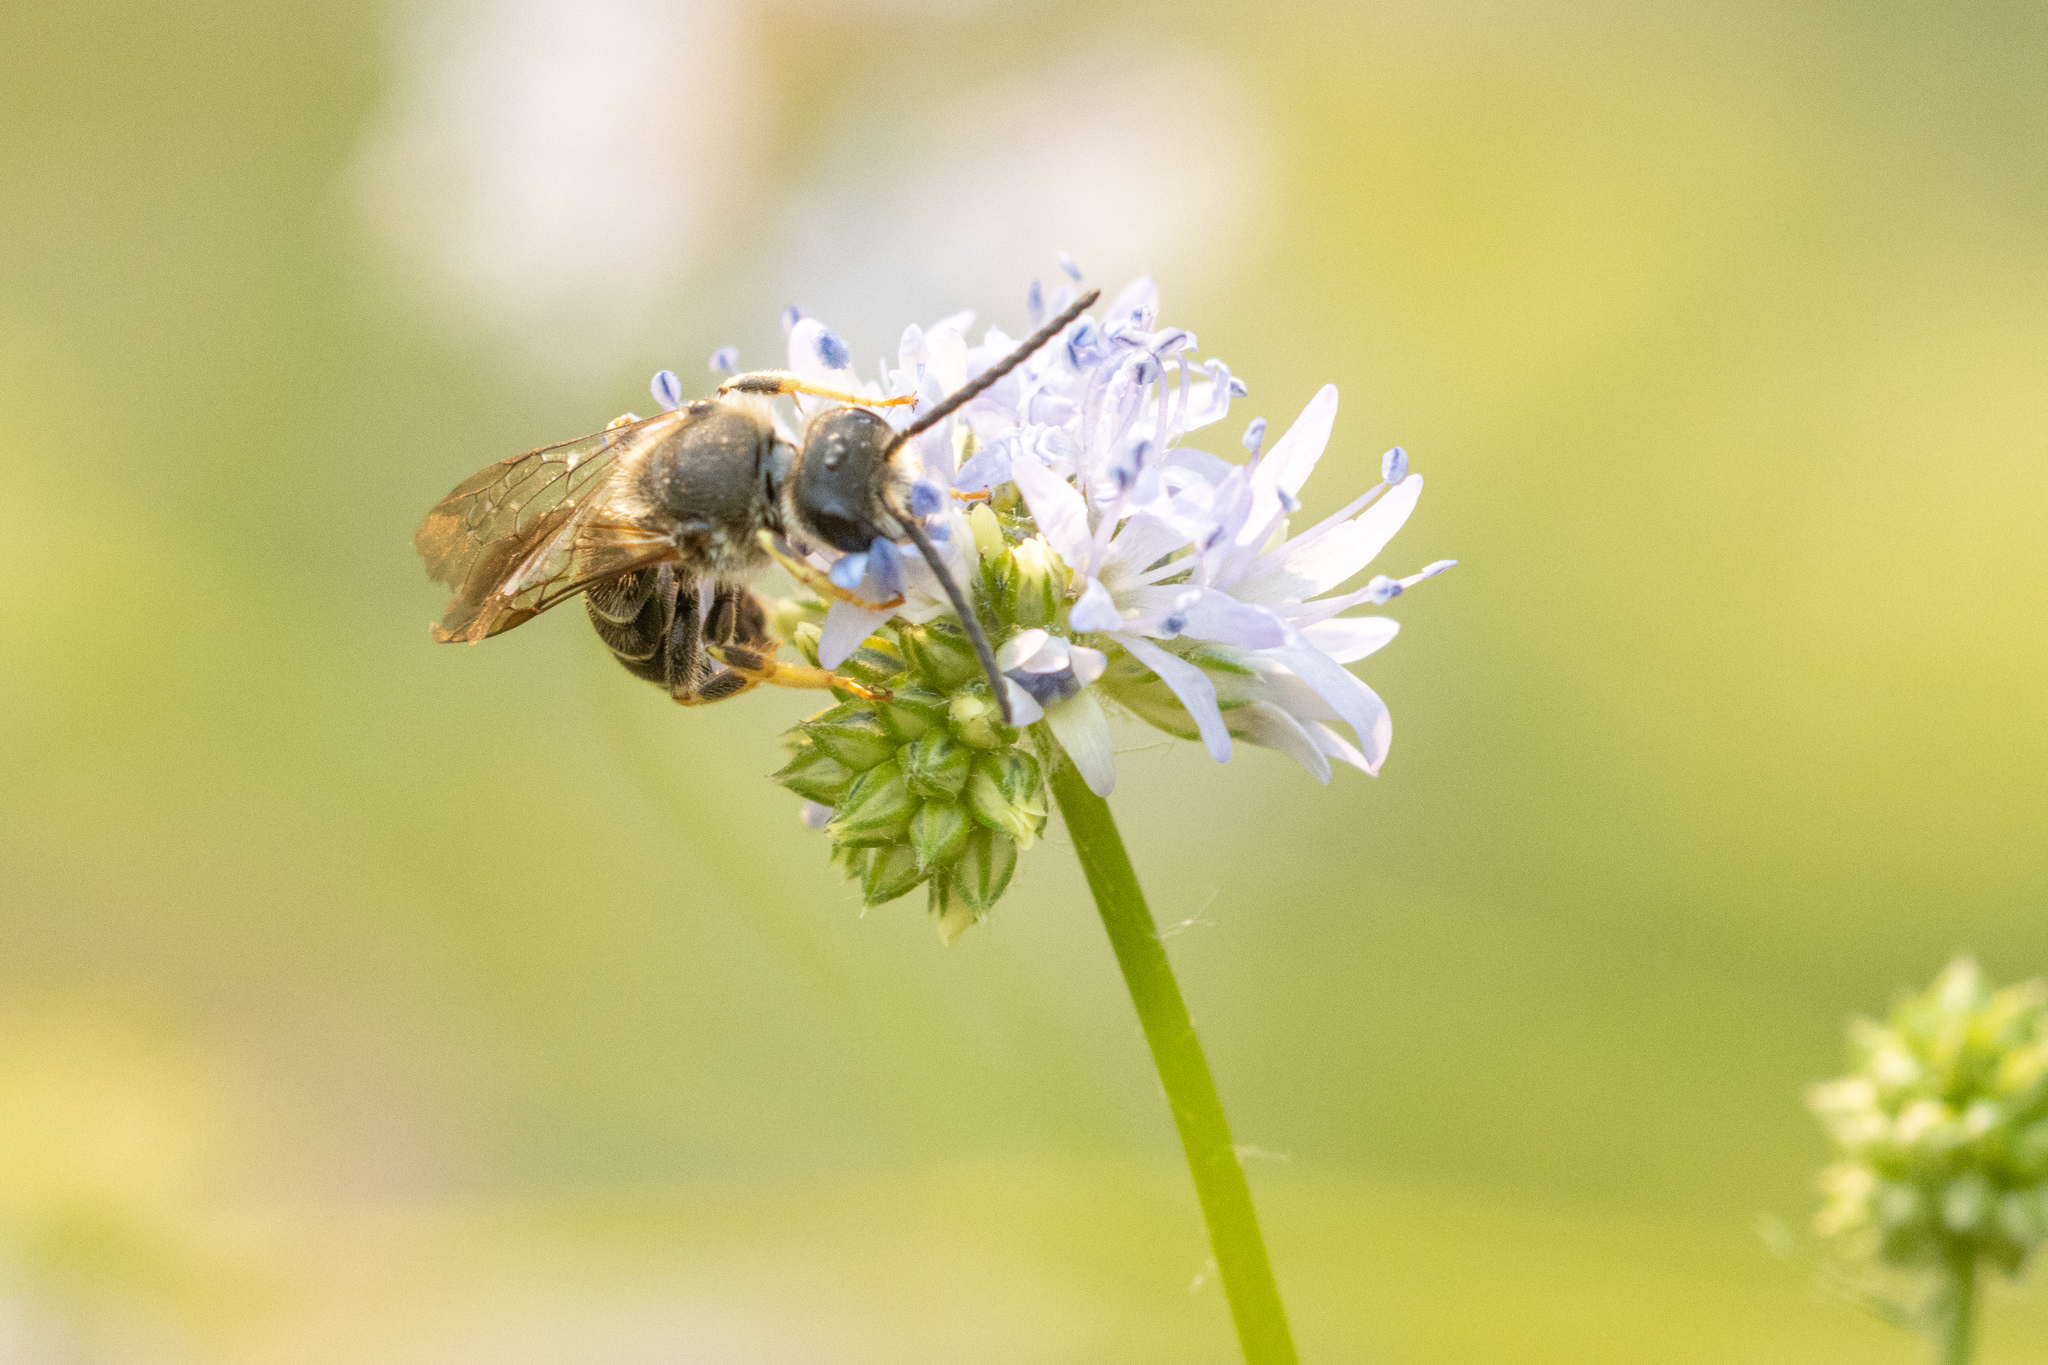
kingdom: Animalia
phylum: Arthropoda
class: Insecta
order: Hymenoptera
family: Halictidae
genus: Halictus
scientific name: Halictus rubicundus
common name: Orange-legged furrow bee
